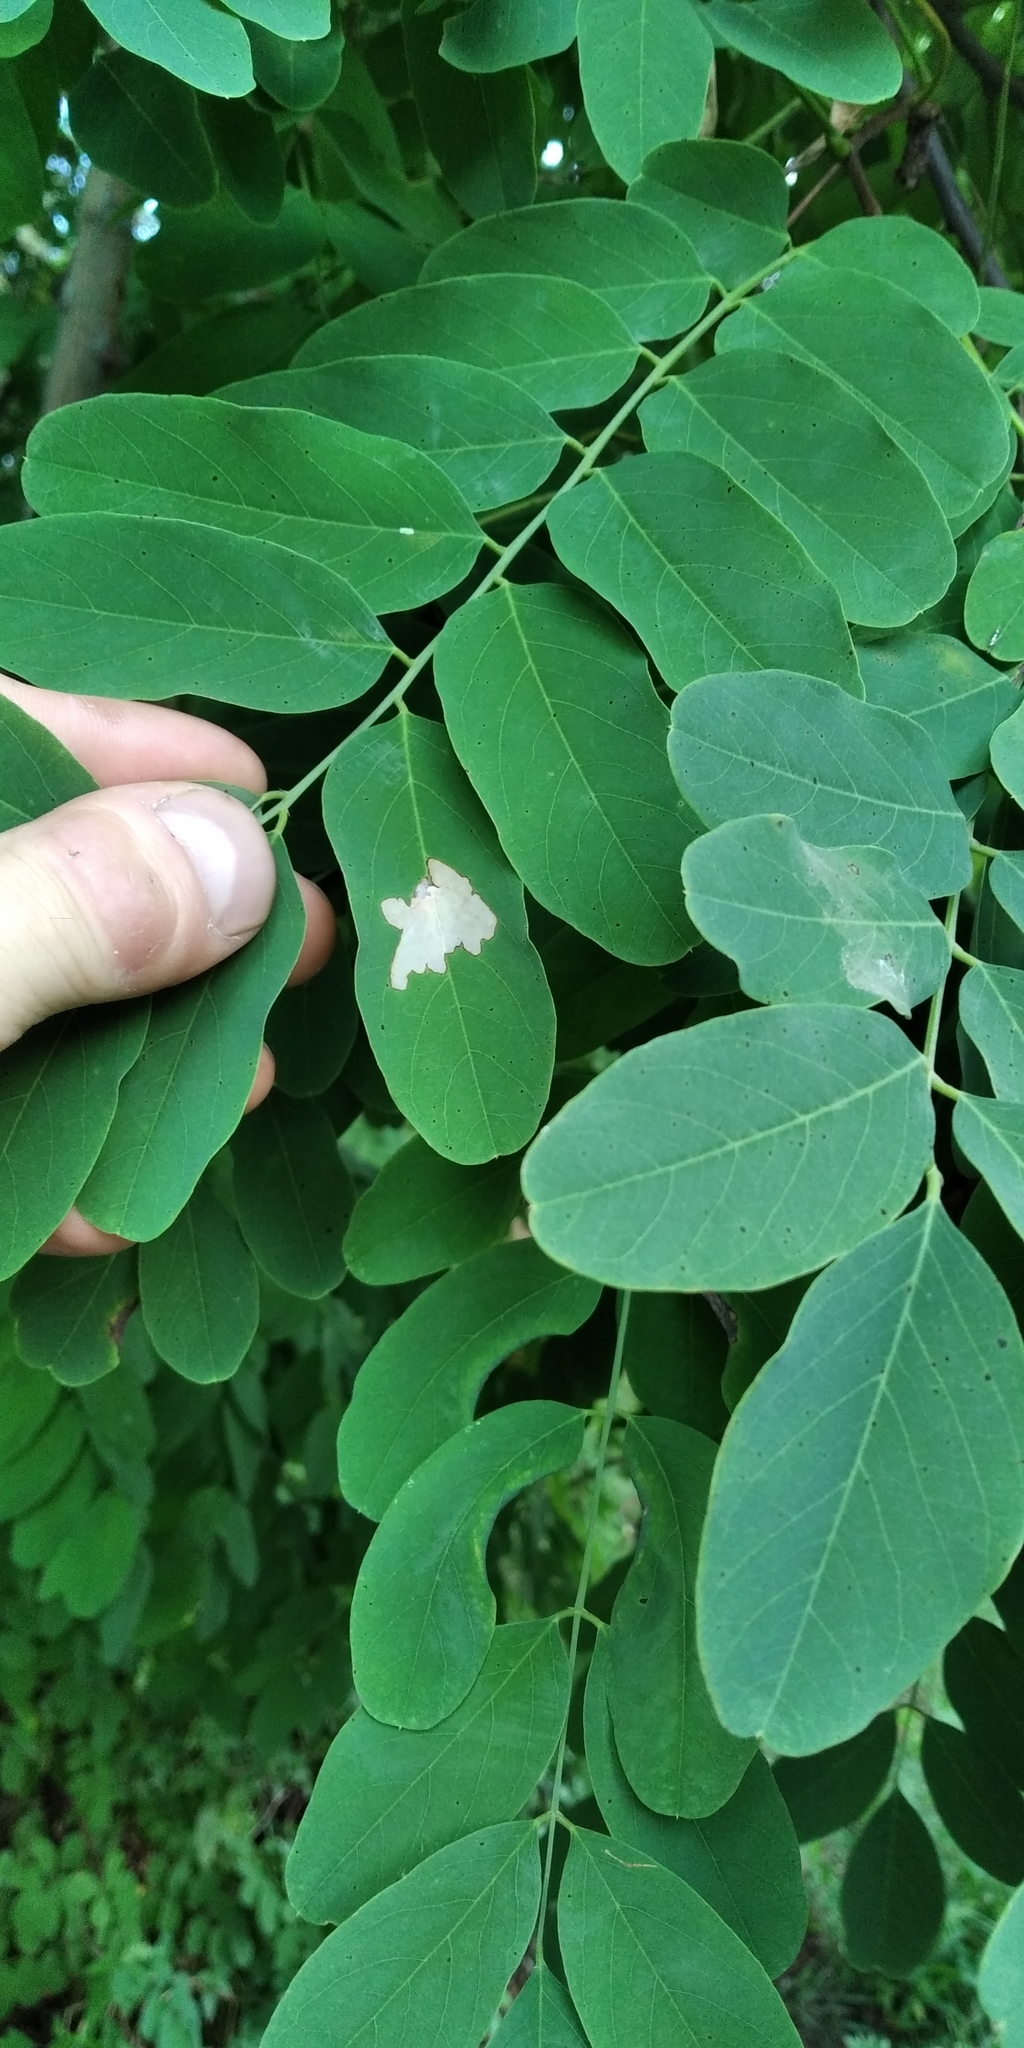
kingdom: Animalia
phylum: Arthropoda
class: Insecta
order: Lepidoptera
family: Gracillariidae
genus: Parectopa
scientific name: Parectopa robiniella
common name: Locust digitate leafminer
